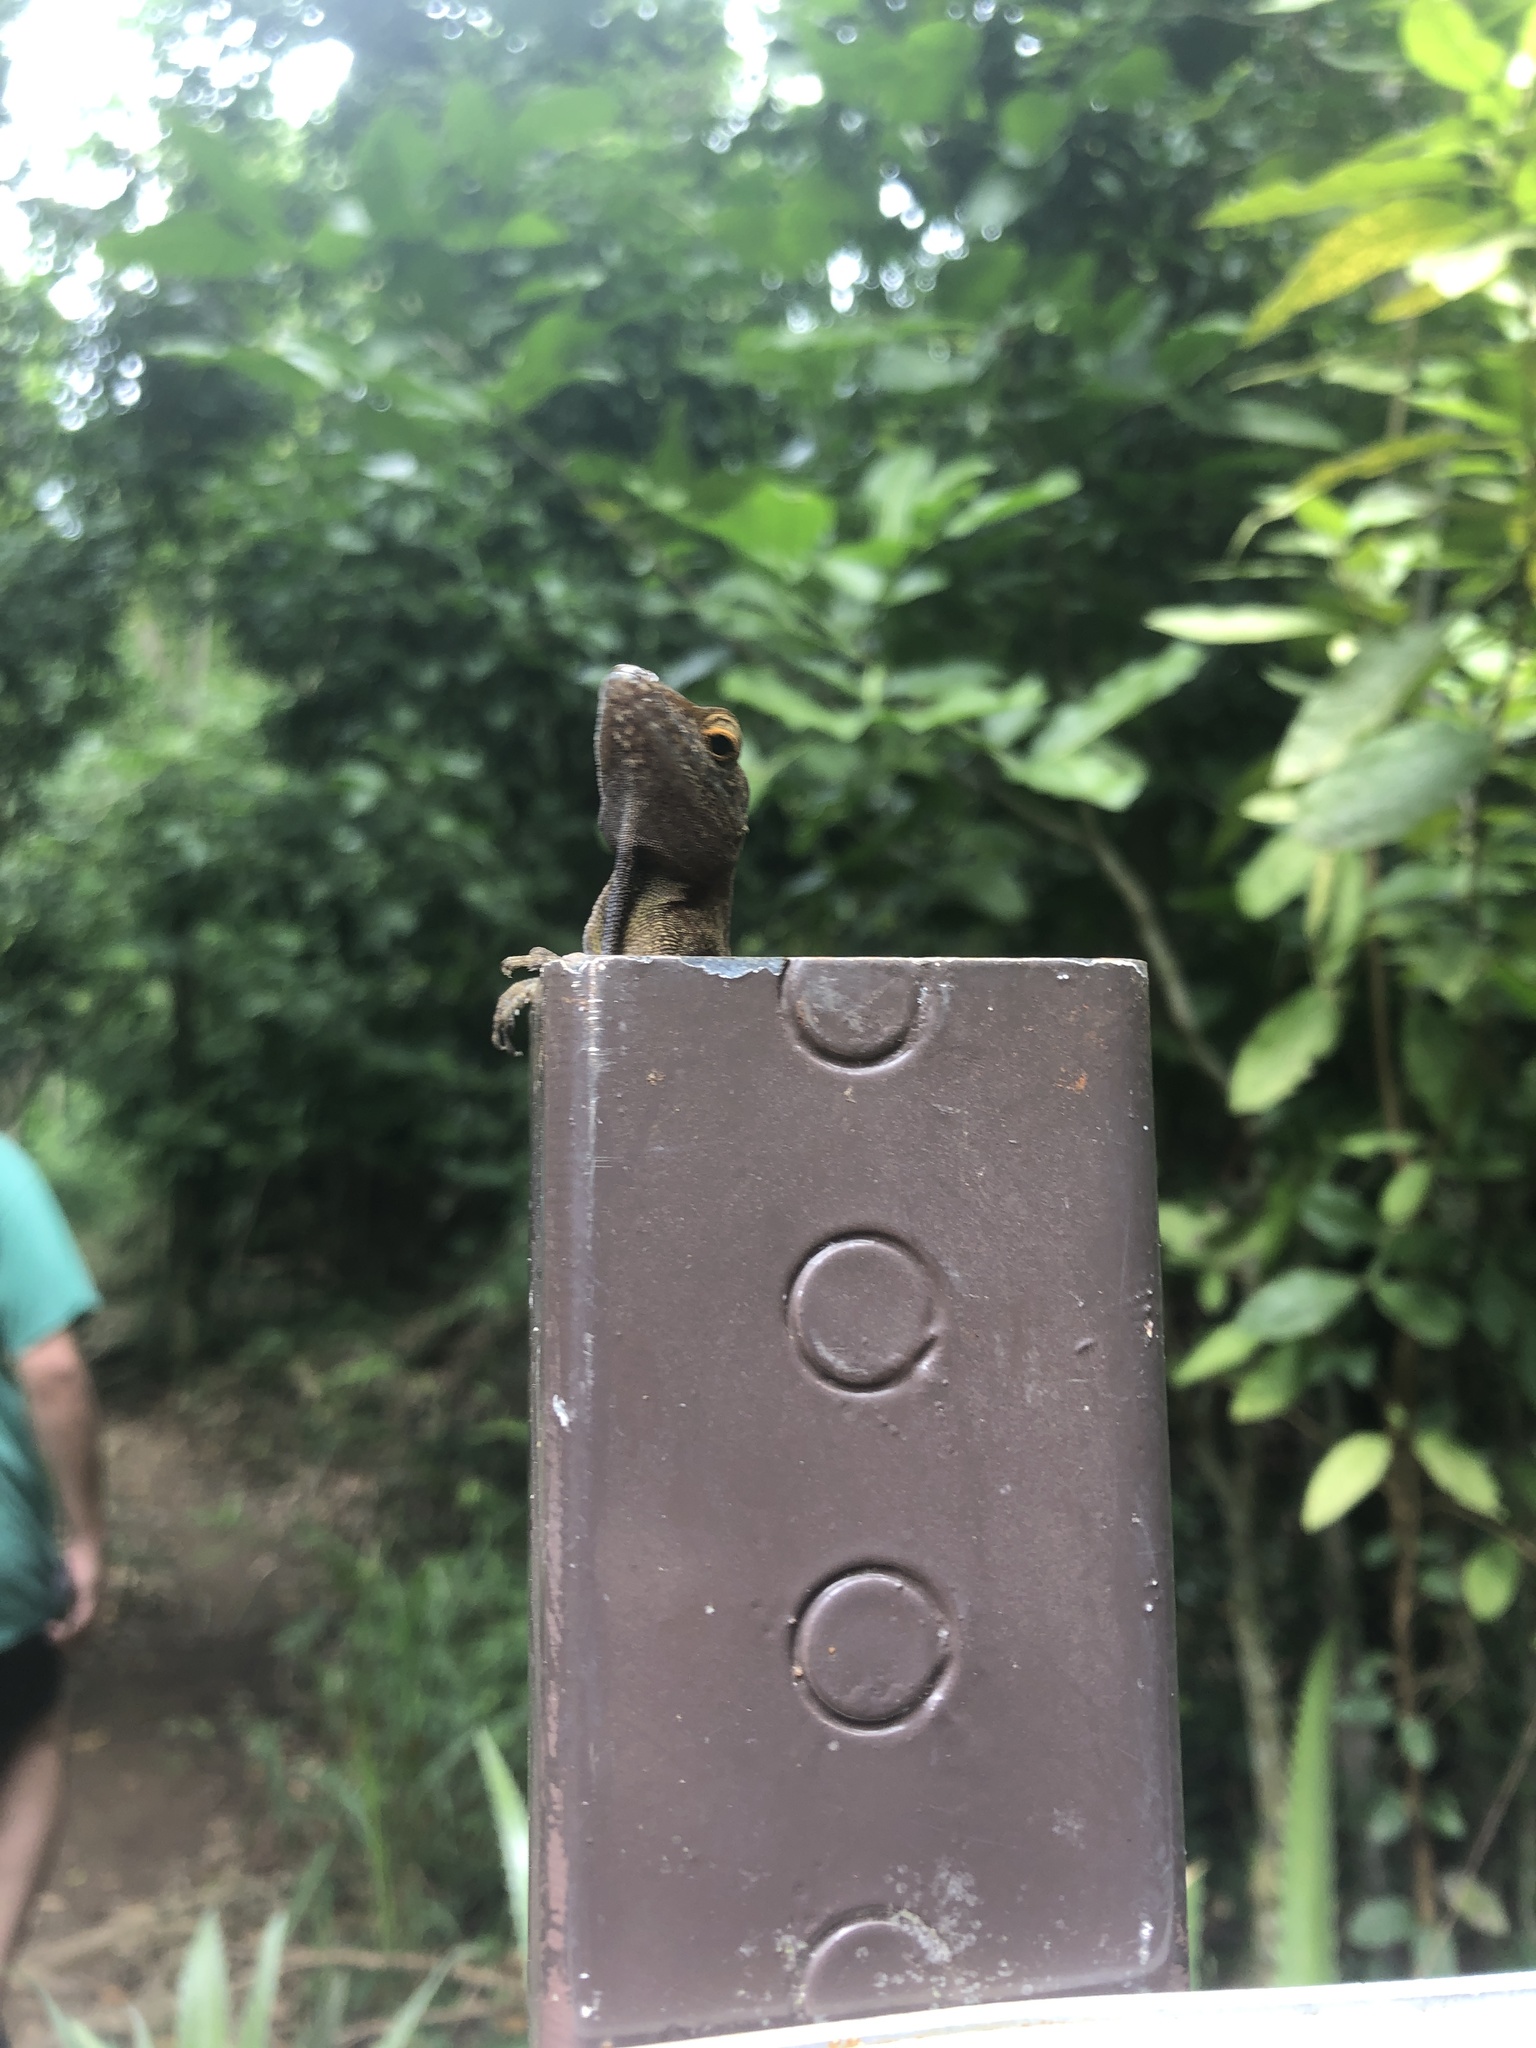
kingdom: Animalia
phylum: Chordata
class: Squamata
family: Dactyloidae
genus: Anolis
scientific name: Anolis cristatellus
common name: Crested anole
